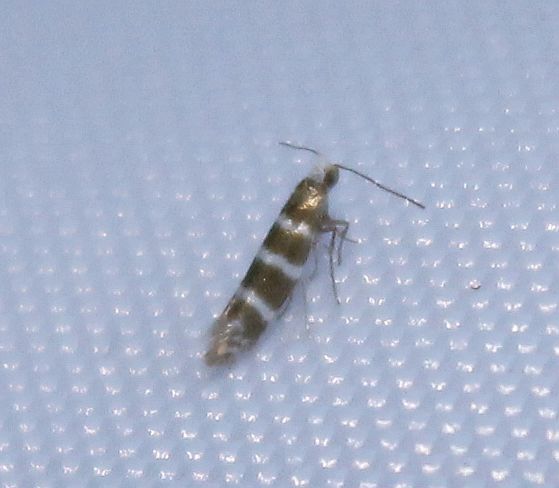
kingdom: Animalia
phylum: Arthropoda
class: Insecta
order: Lepidoptera
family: Argyresthiidae
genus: Argyresthia
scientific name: Argyresthia trifasciata
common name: Triple-barred argent
